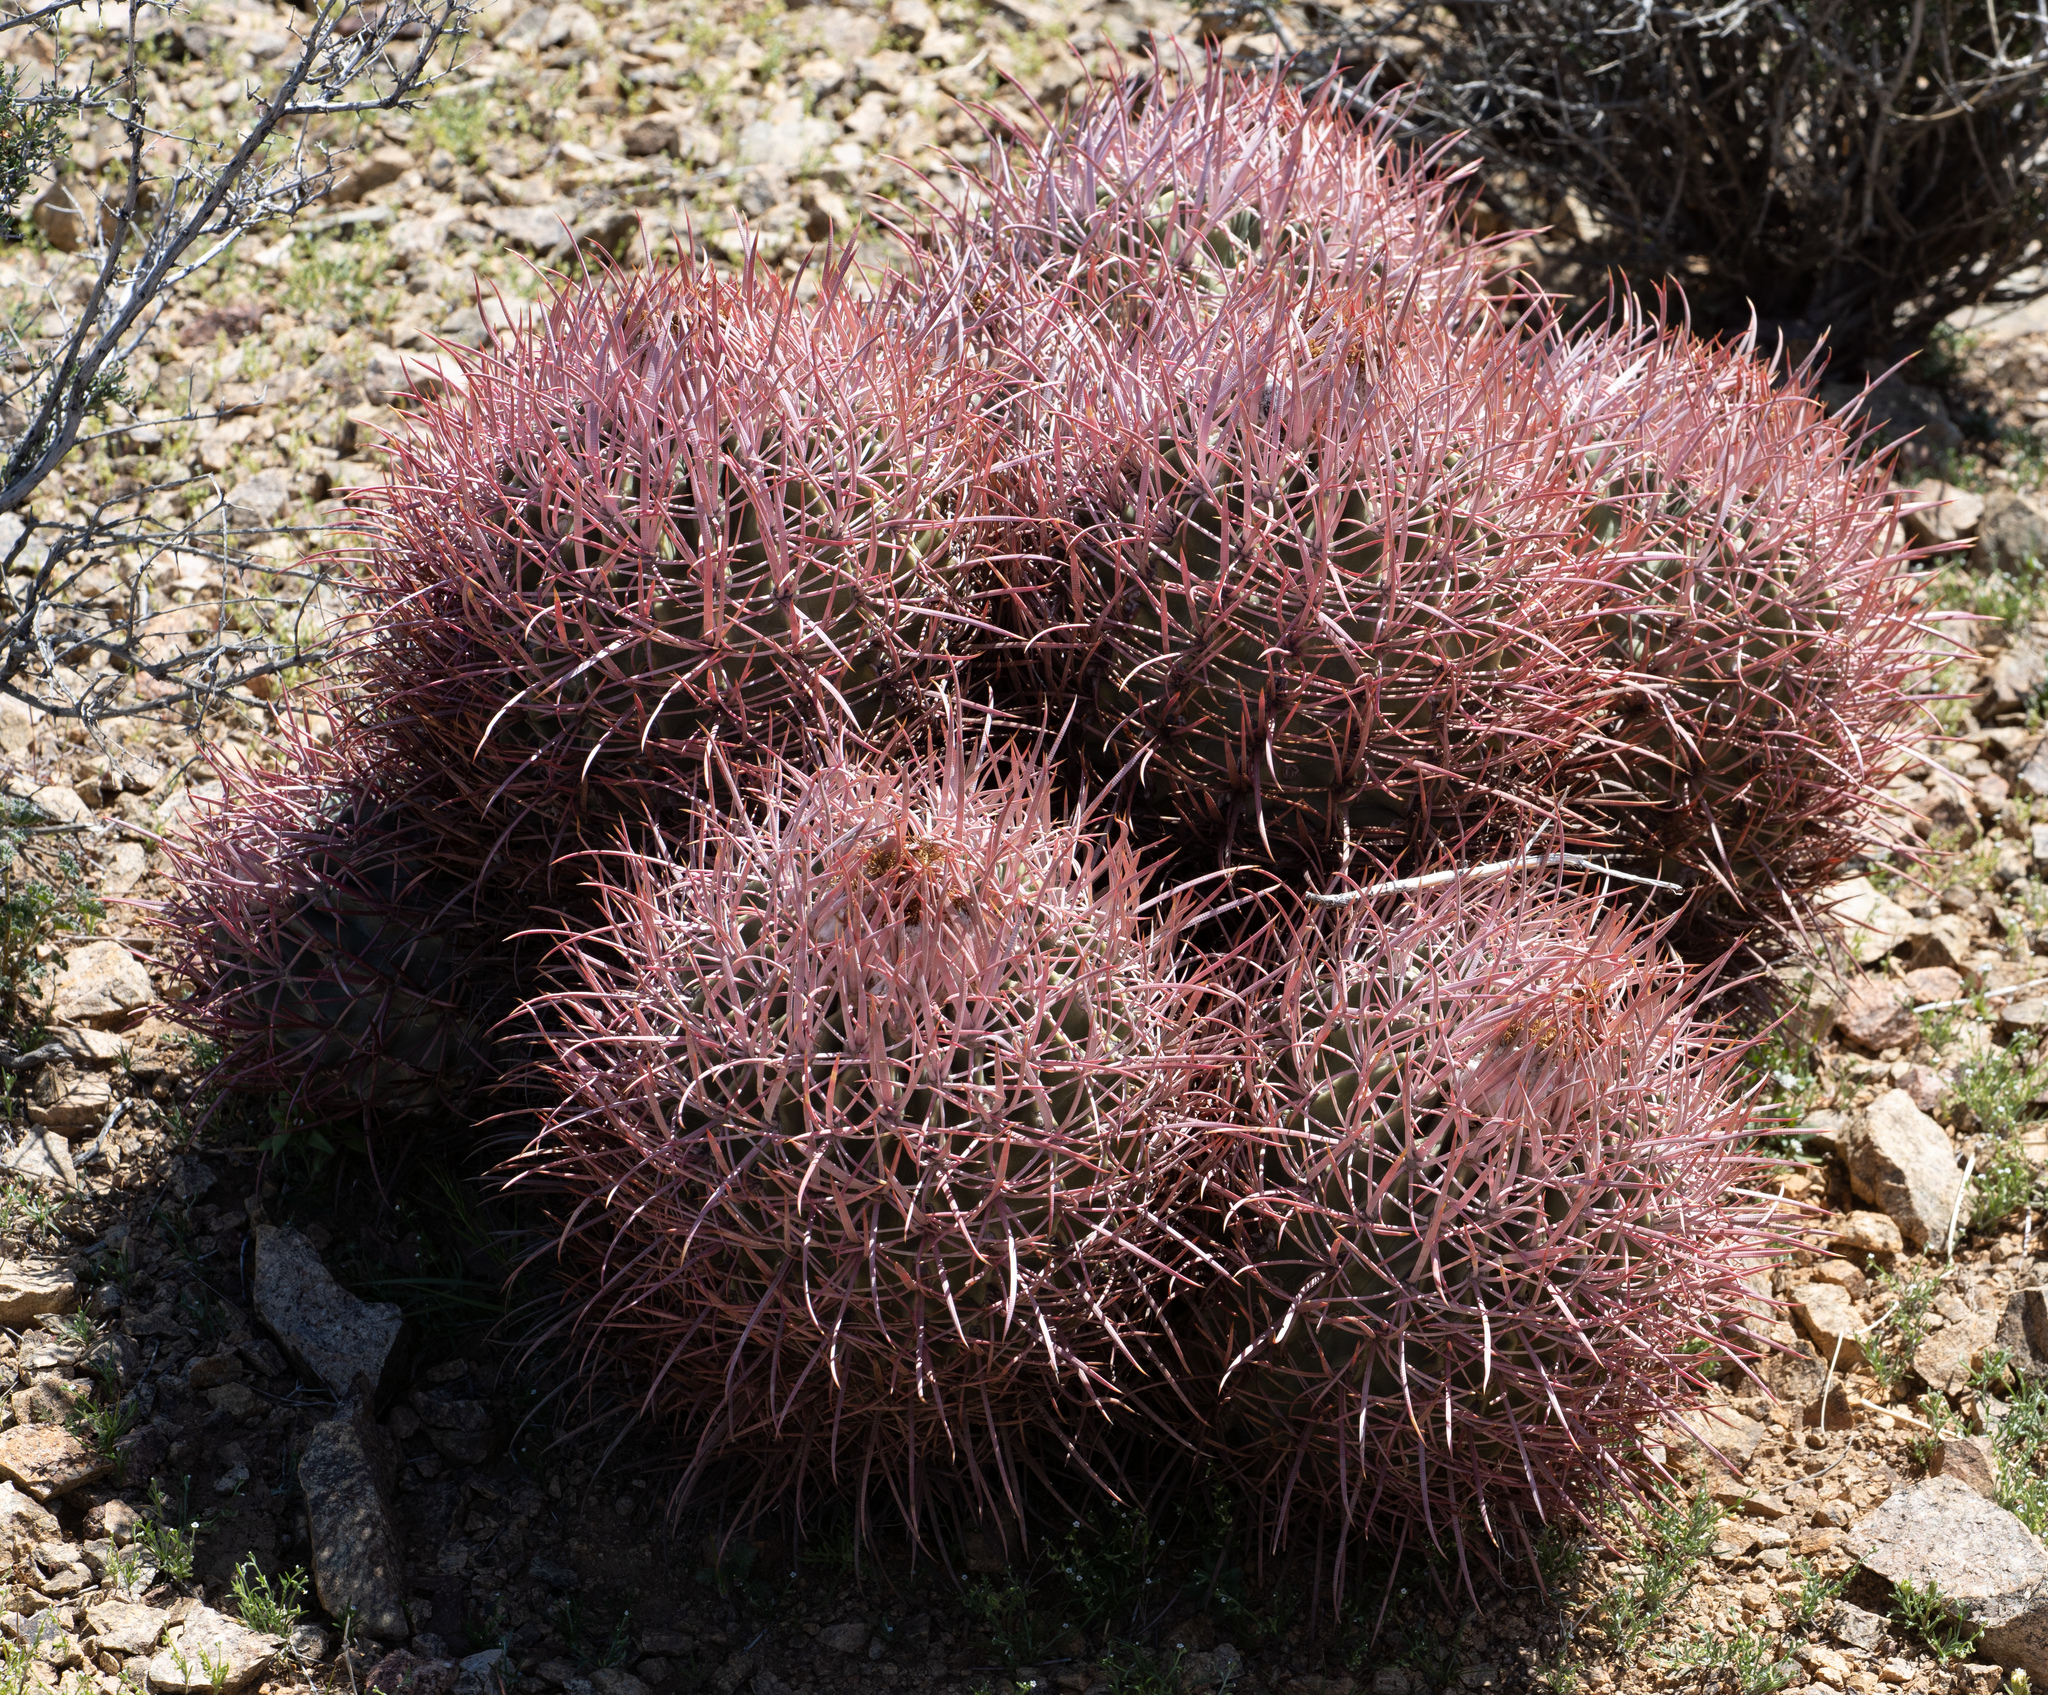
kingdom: Plantae
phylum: Tracheophyta
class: Magnoliopsida
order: Caryophyllales
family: Cactaceae
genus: Echinocactus
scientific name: Echinocactus polycephalus
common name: Cottontop cactus
